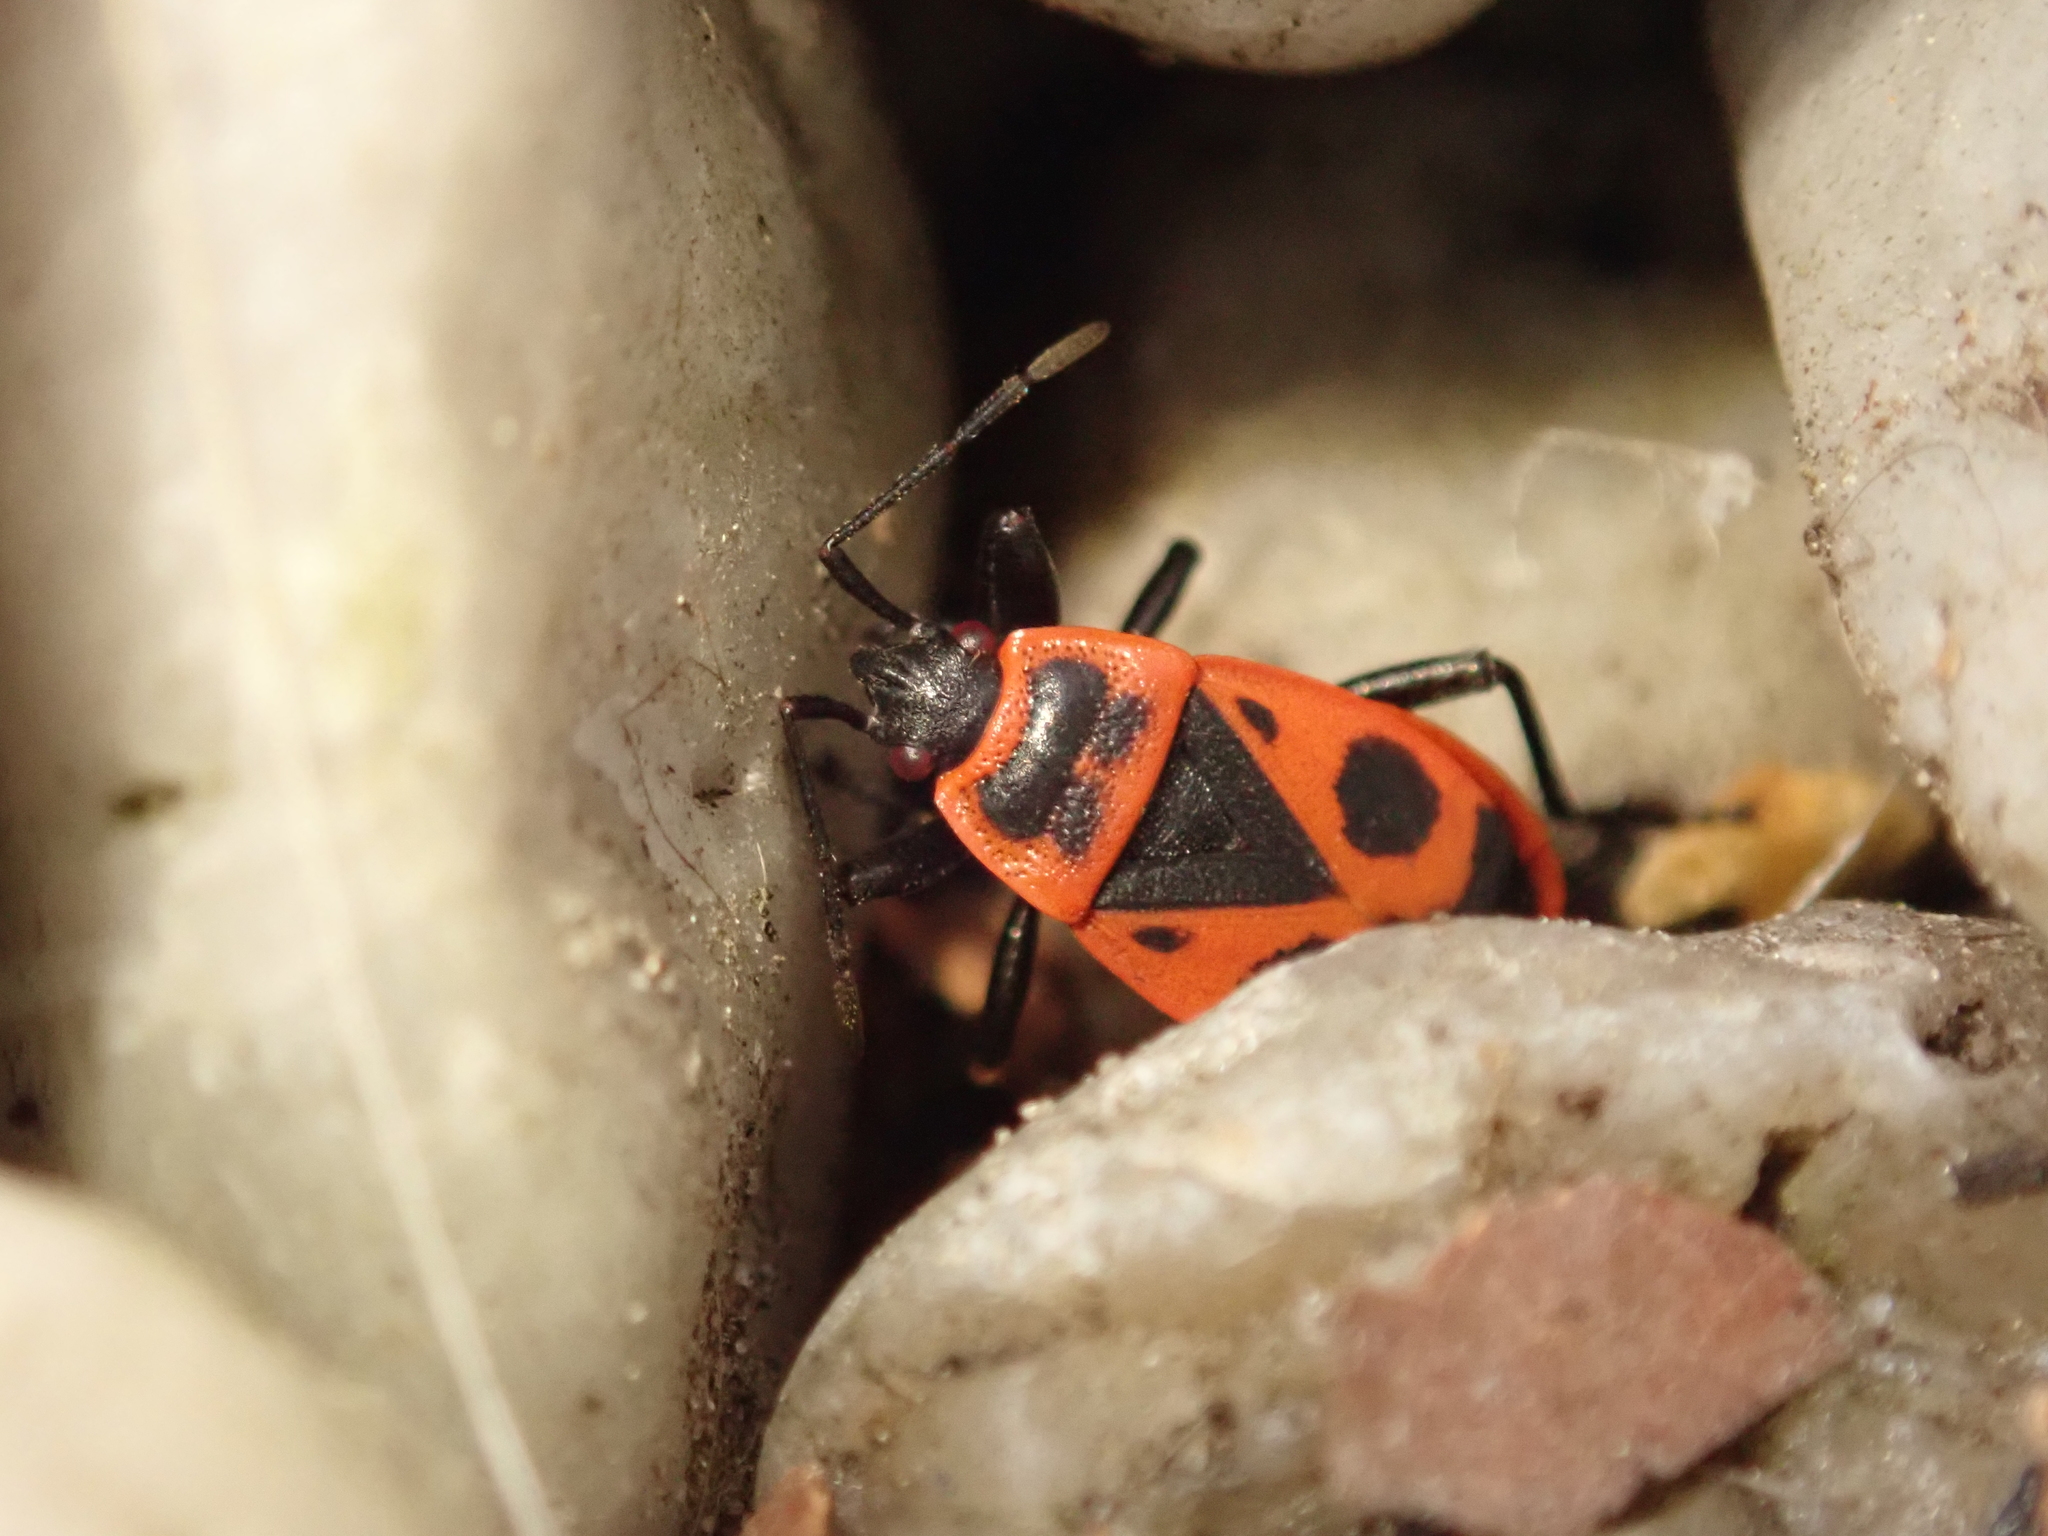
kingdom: Animalia
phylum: Arthropoda
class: Insecta
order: Hemiptera
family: Pyrrhocoridae
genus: Pyrrhocoris
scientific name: Pyrrhocoris apterus
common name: Firebug
